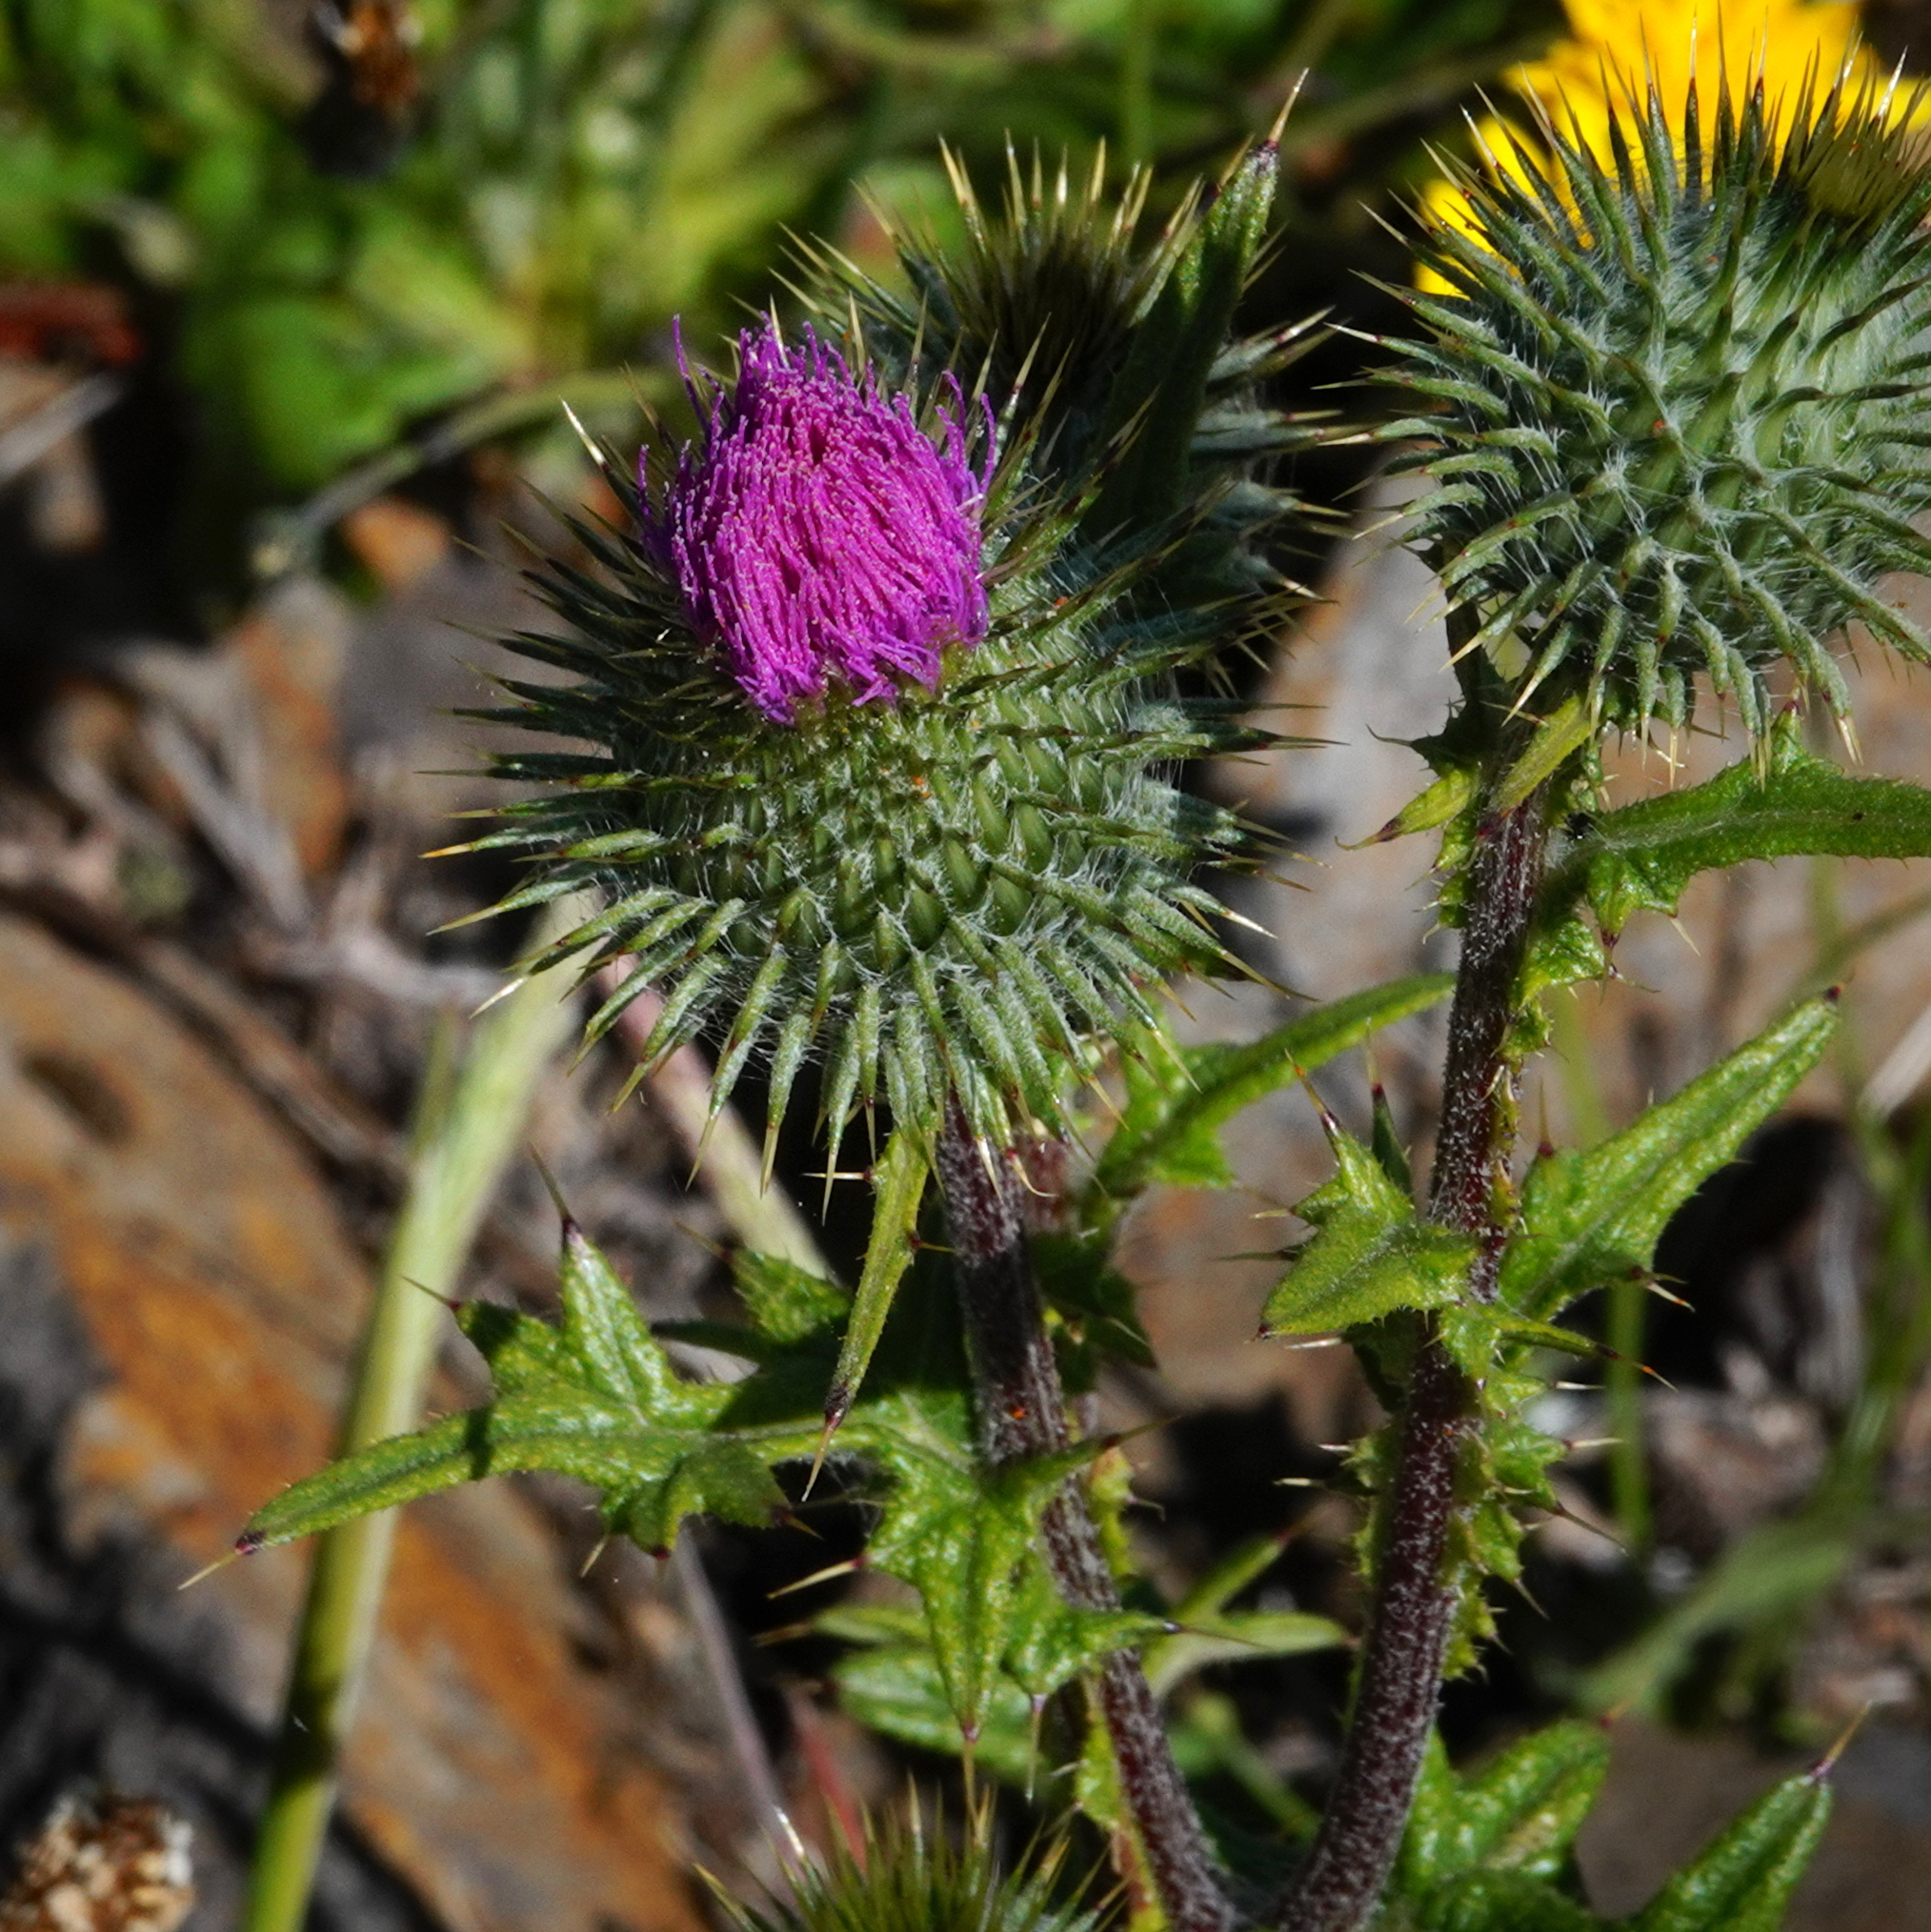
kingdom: Plantae
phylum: Tracheophyta
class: Magnoliopsida
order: Asterales
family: Asteraceae
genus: Cirsium
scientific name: Cirsium vulgare
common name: Bull thistle
